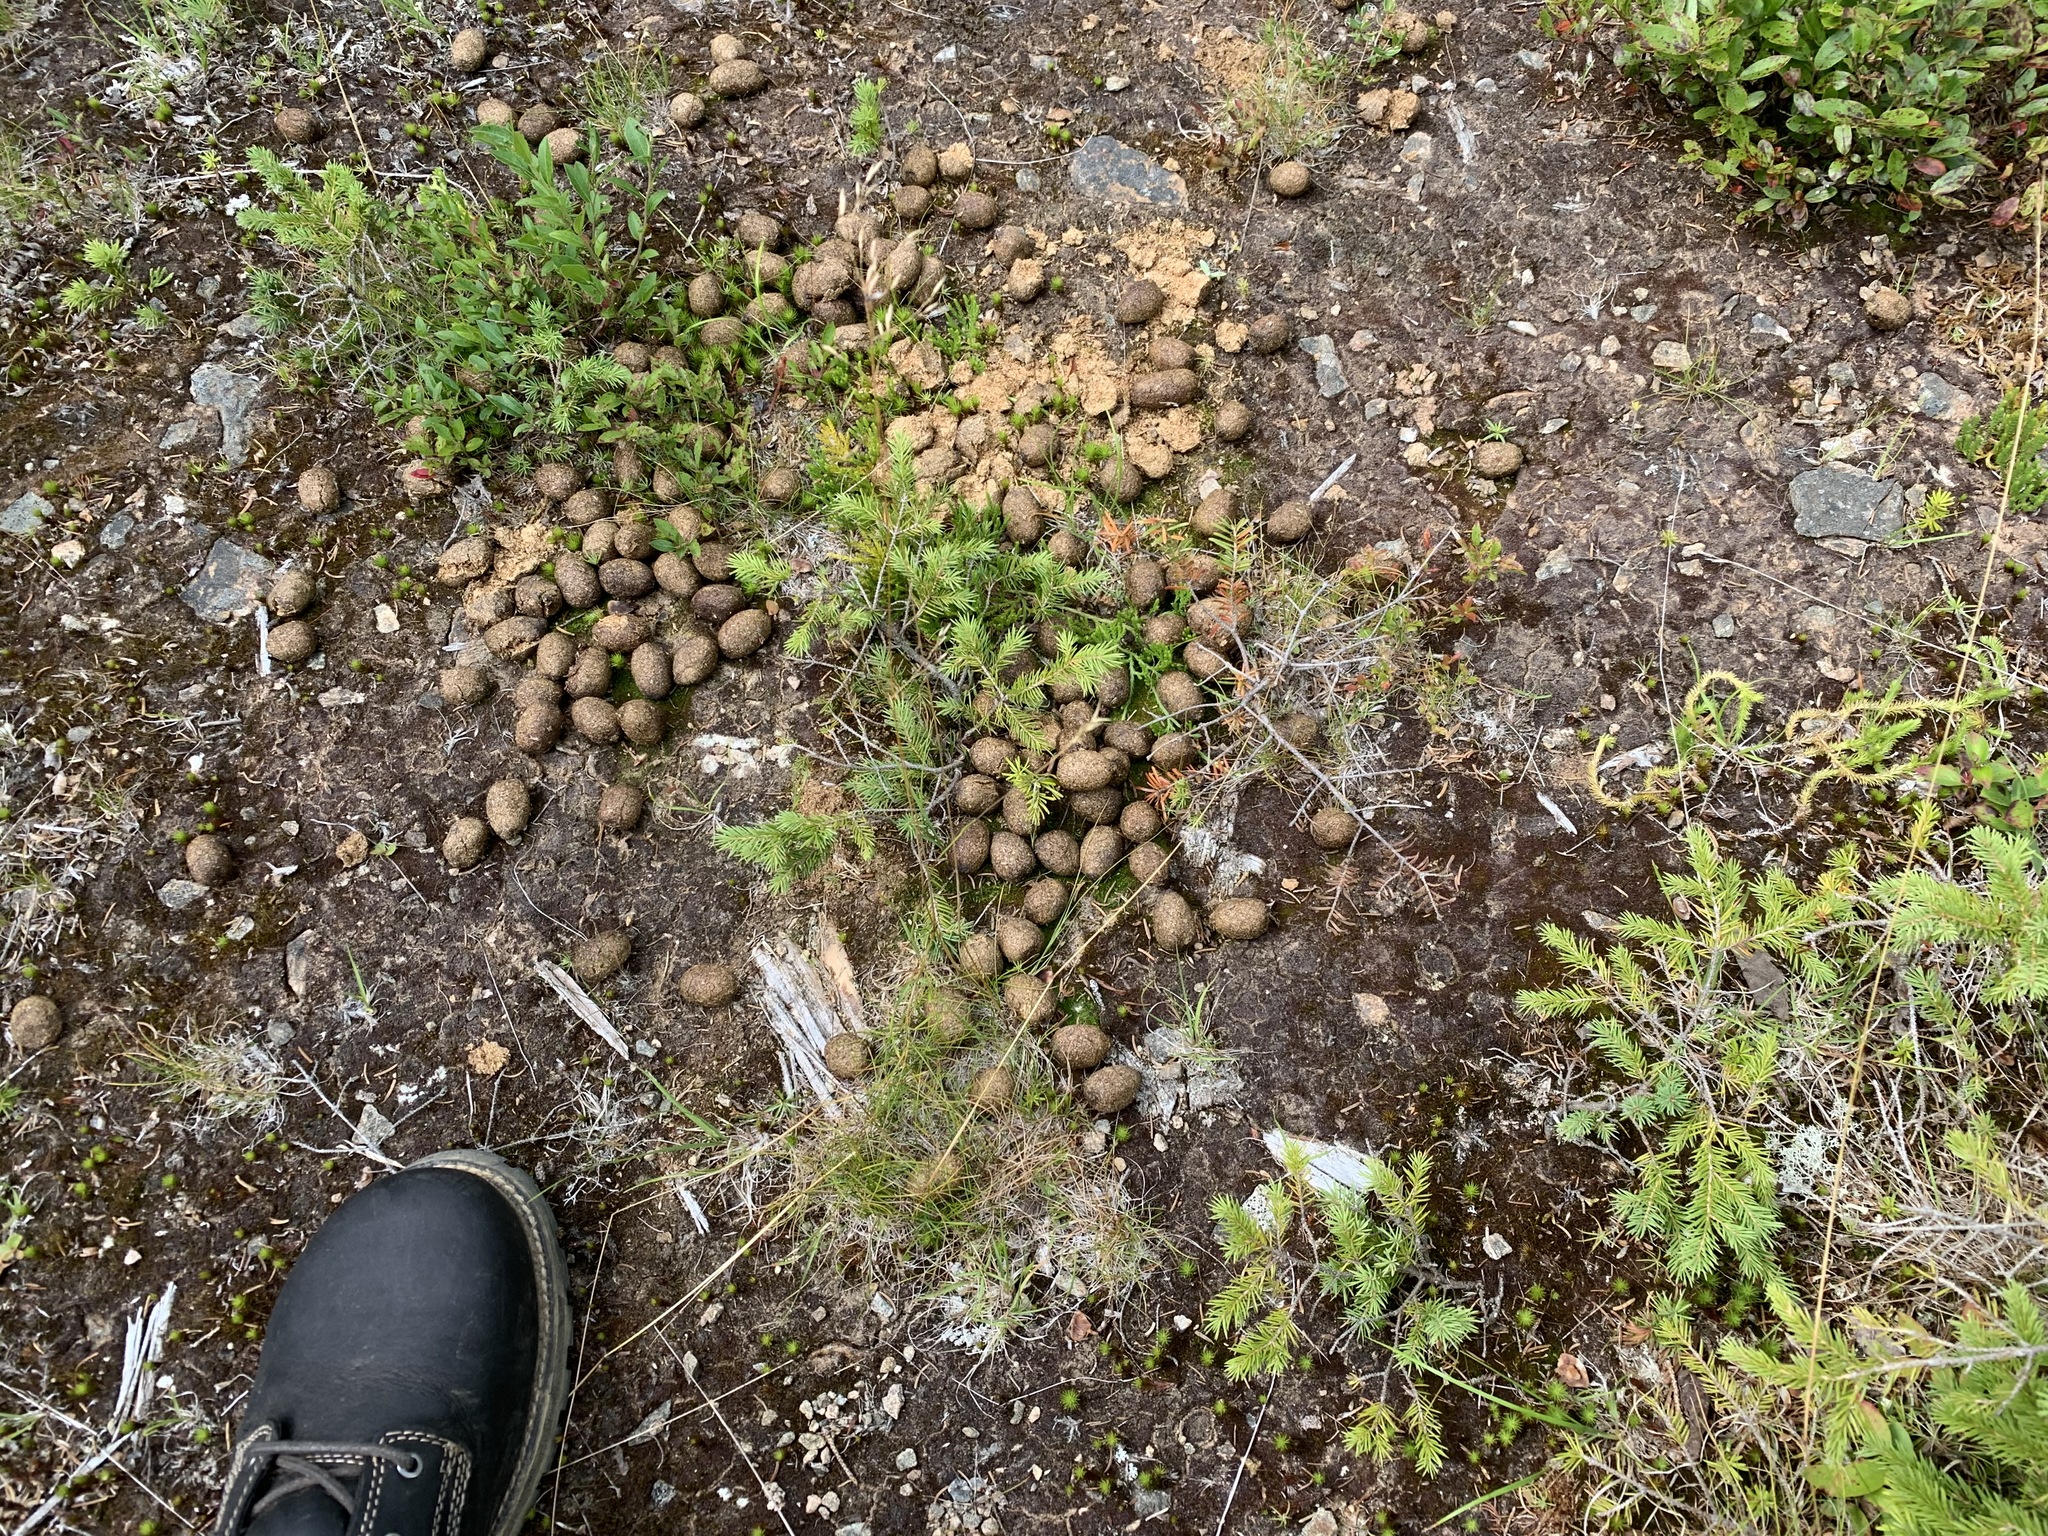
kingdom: Animalia
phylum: Chordata
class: Mammalia
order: Artiodactyla
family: Cervidae
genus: Alces
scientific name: Alces alces
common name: Moose
